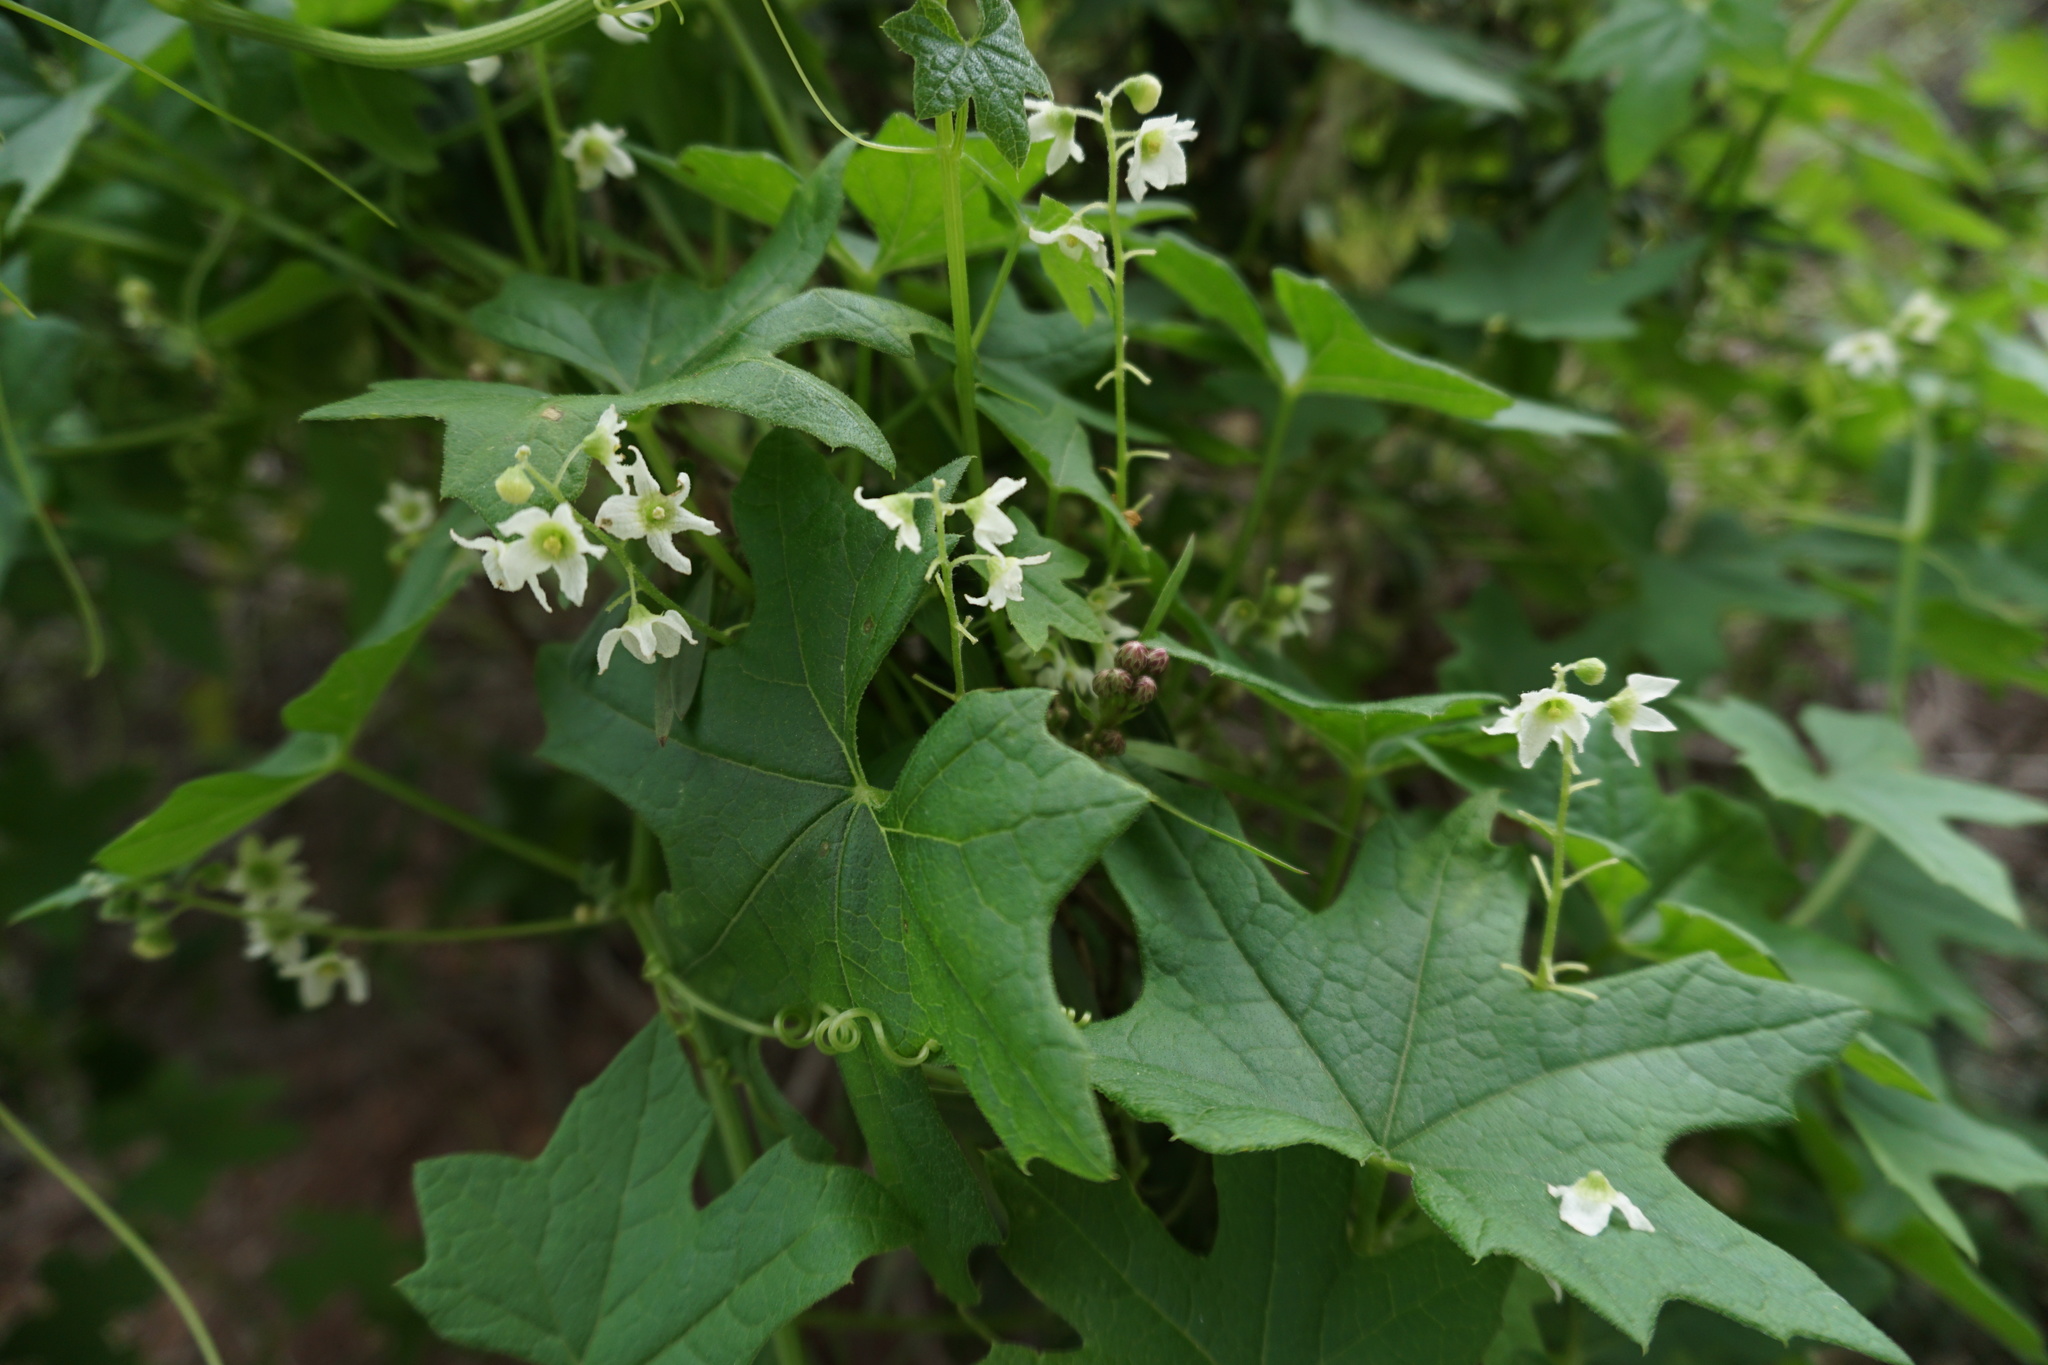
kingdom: Plantae
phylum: Tracheophyta
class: Magnoliopsida
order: Cucurbitales
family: Cucurbitaceae
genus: Marah
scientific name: Marah macrocarpa
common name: Cucamonga manroot
